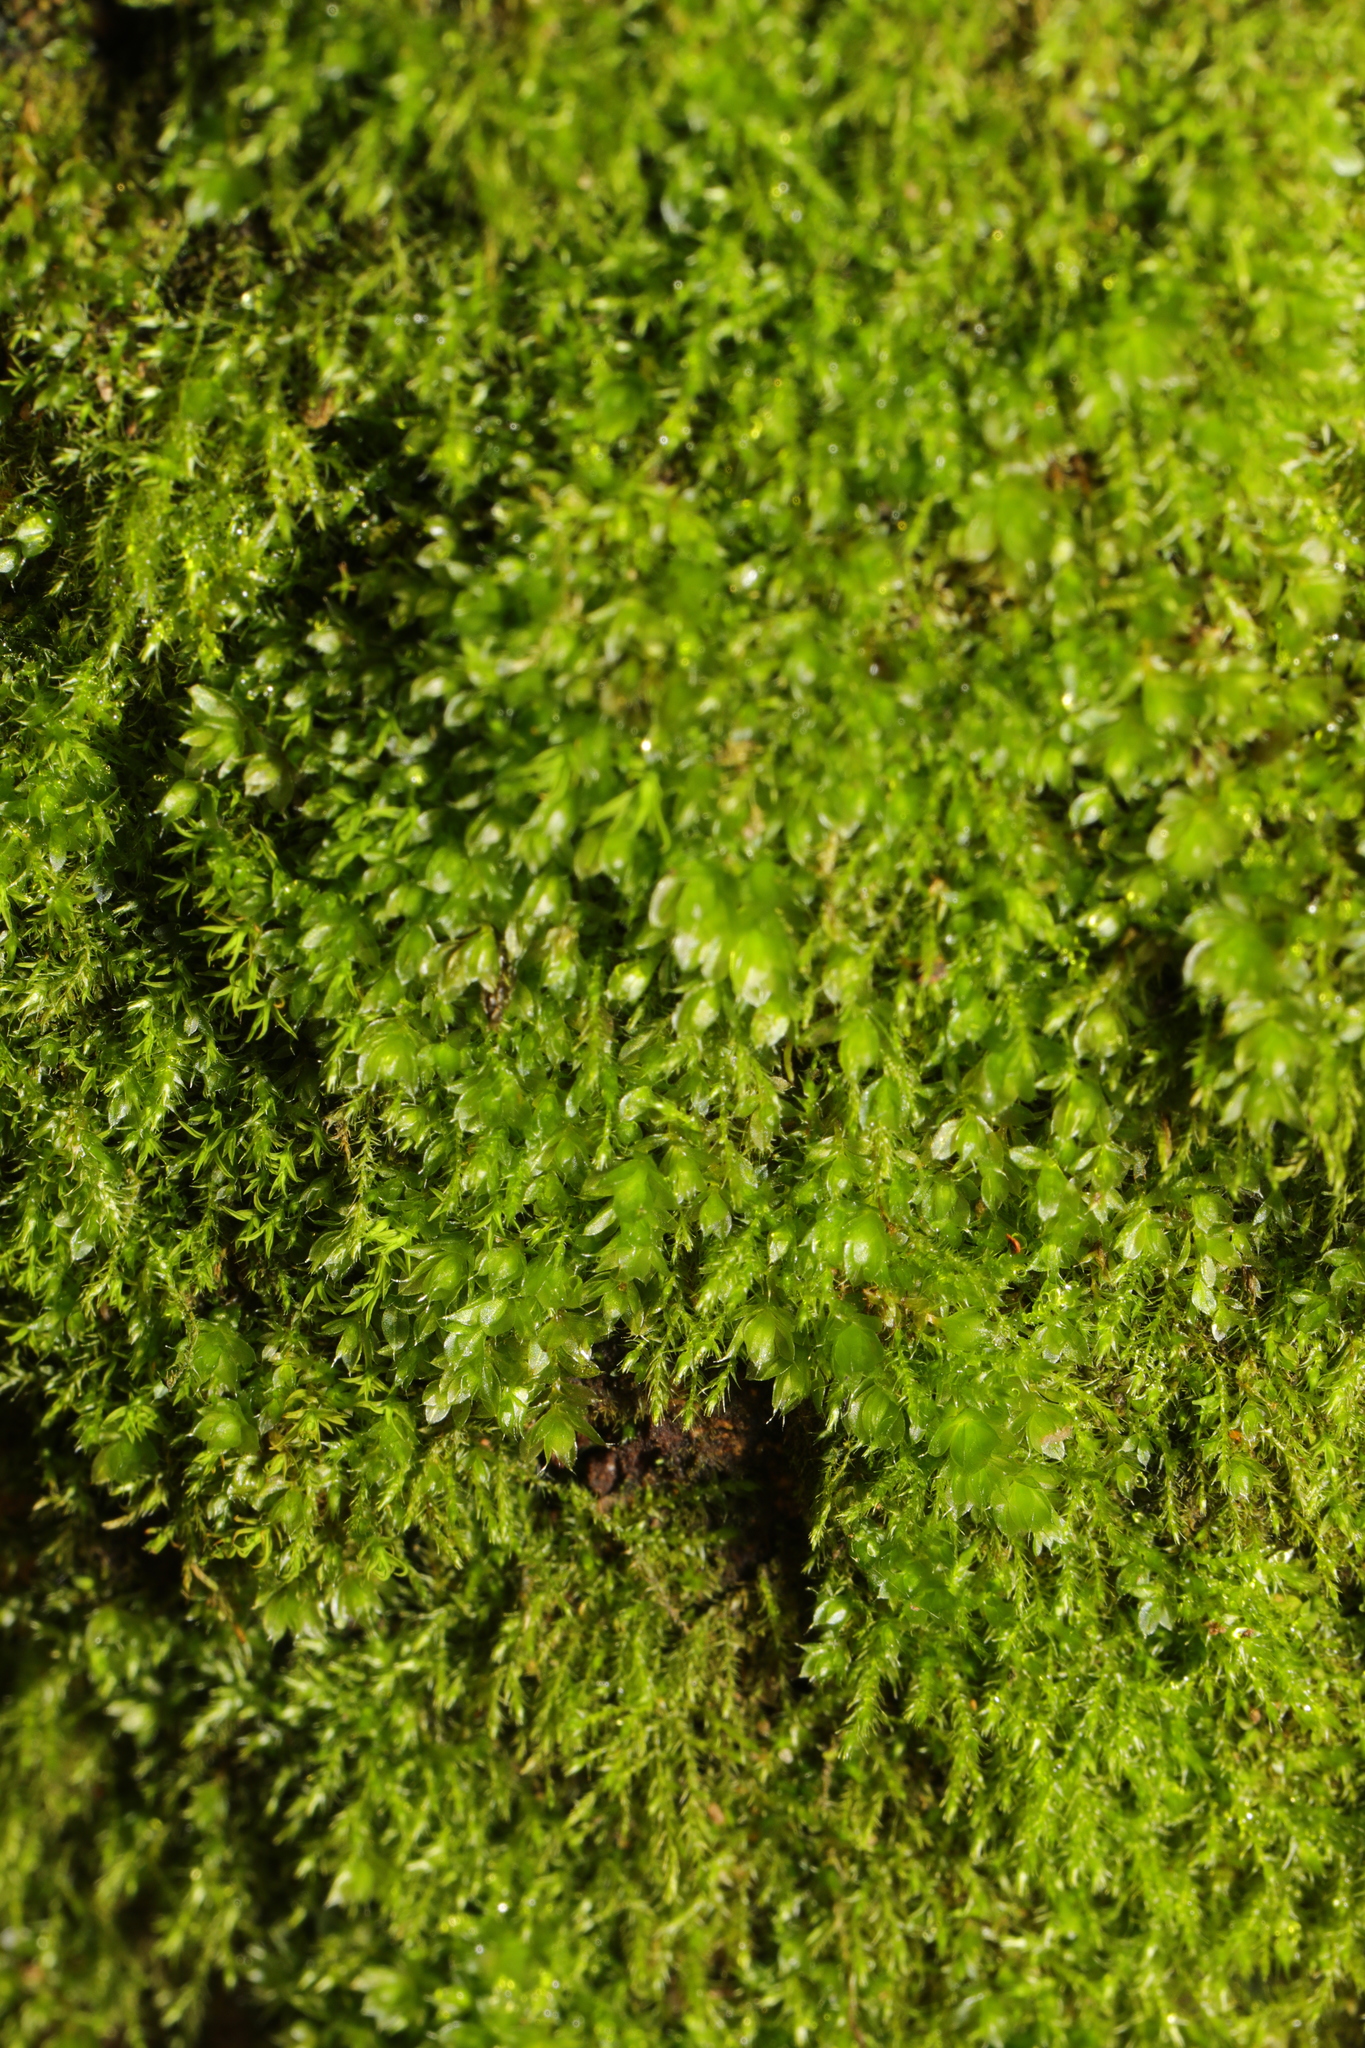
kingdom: Plantae
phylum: Bryophyta
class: Bryopsida
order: Bryales
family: Bryaceae
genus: Rosulabryum
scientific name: Rosulabryum capillare
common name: Capillary thread-moss
